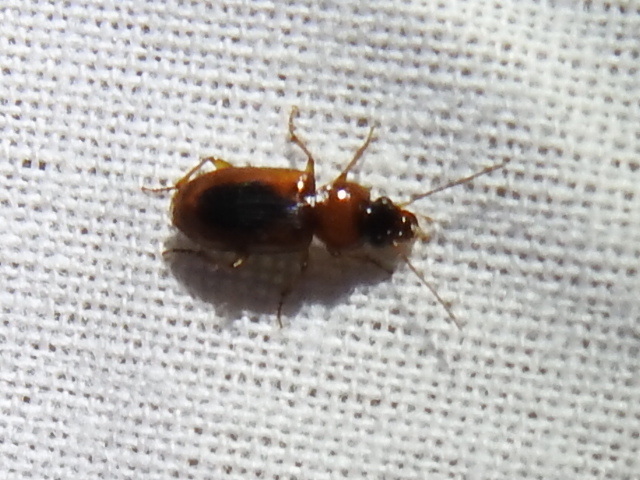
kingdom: Animalia
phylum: Arthropoda
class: Insecta
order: Coleoptera
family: Carabidae
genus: Stenolophus
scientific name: Stenolophus dissimilis
